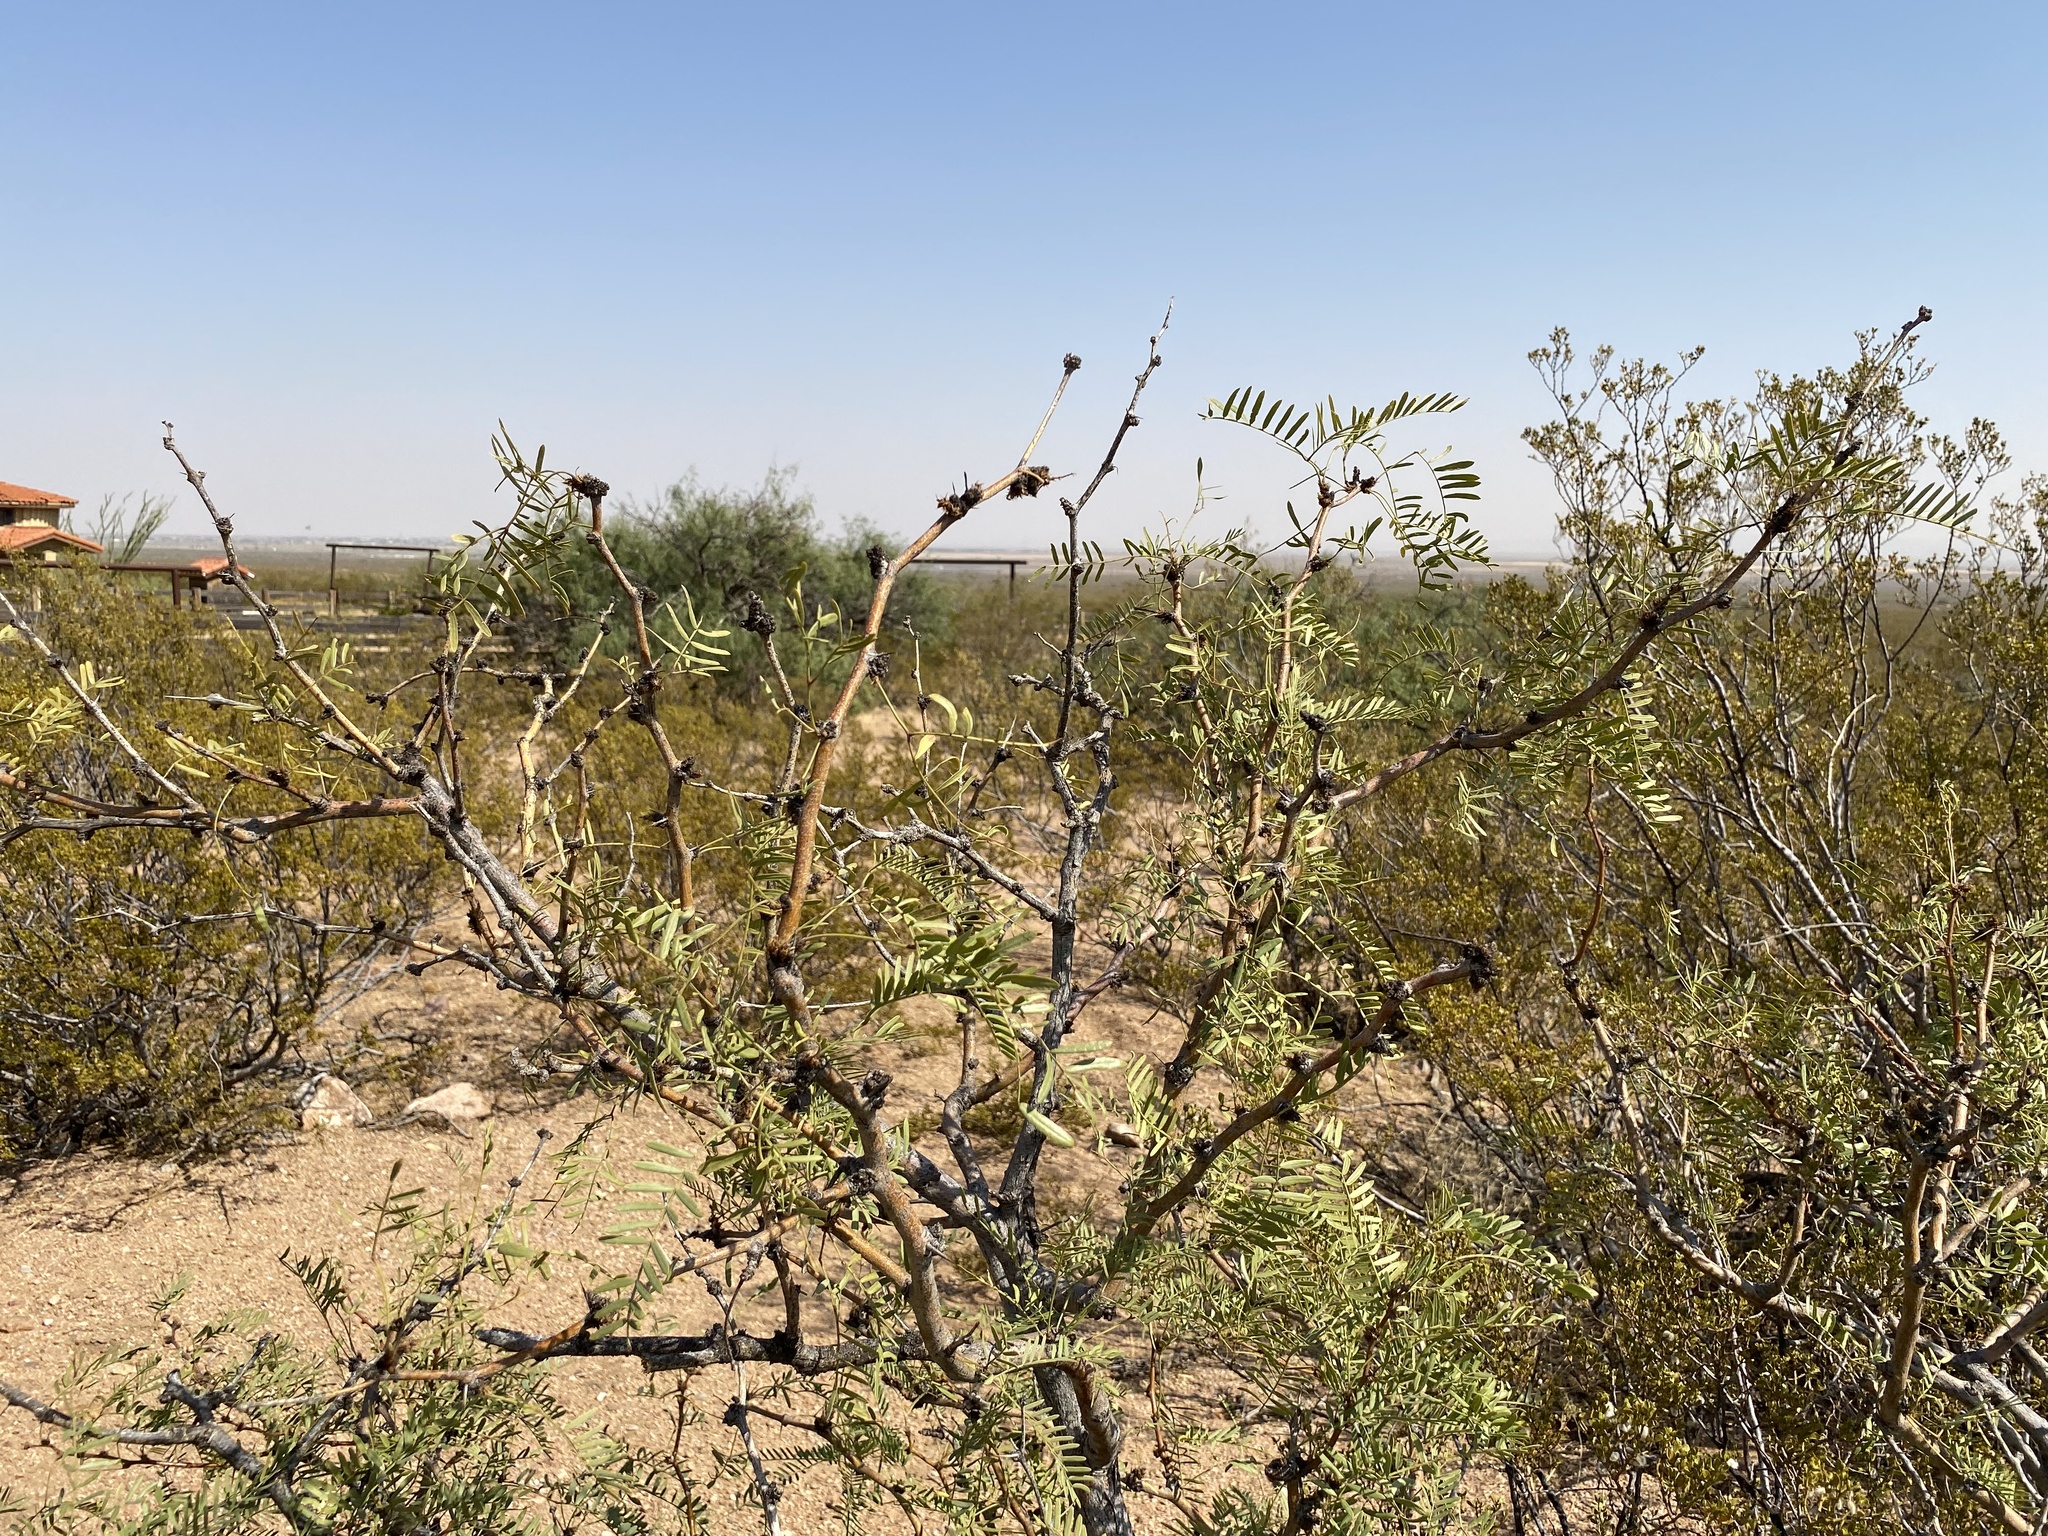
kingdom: Plantae
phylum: Tracheophyta
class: Magnoliopsida
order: Fabales
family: Fabaceae
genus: Prosopis
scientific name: Prosopis glandulosa
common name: Honey mesquite
